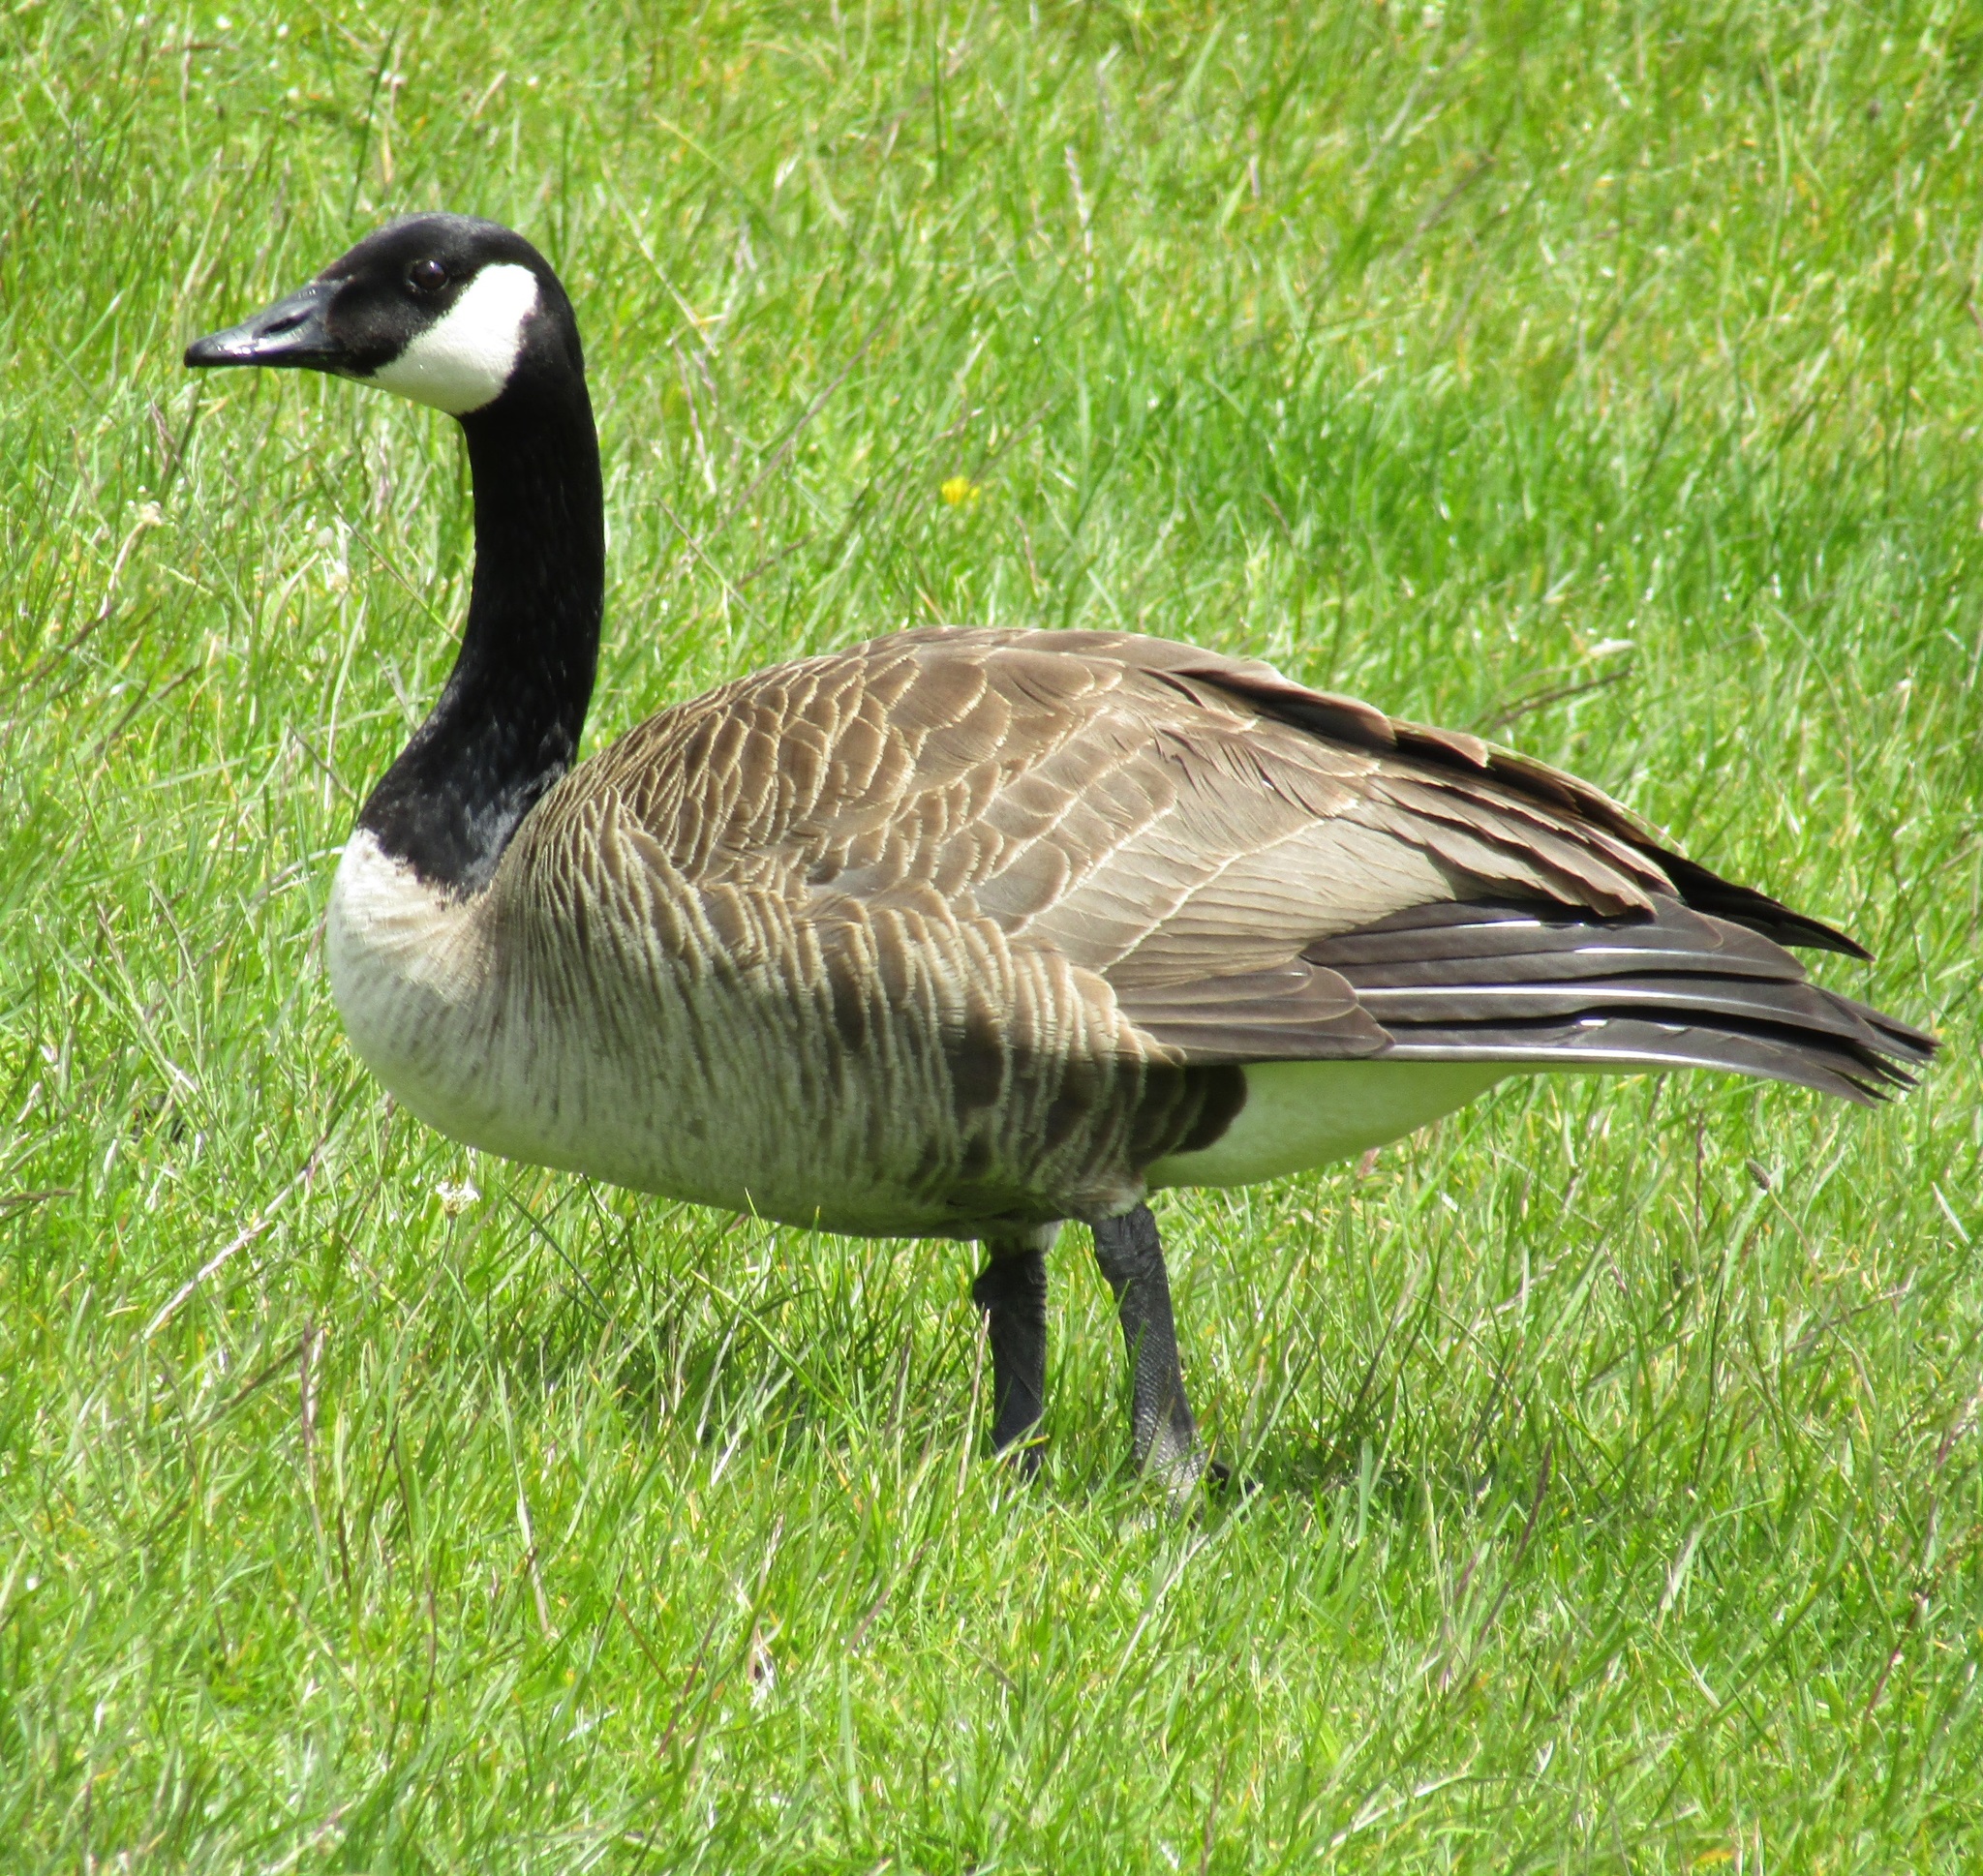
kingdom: Animalia
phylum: Chordata
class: Aves
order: Anseriformes
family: Anatidae
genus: Branta
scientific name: Branta canadensis
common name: Canada goose
